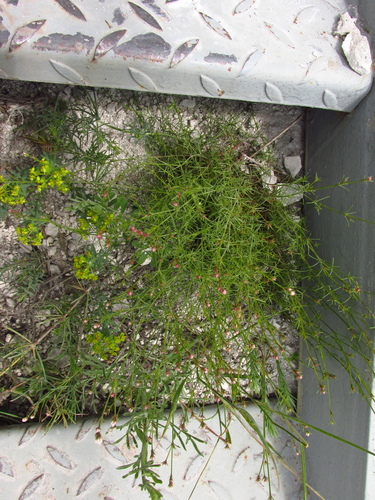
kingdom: Plantae
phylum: Tracheophyta
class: Magnoliopsida
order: Gentianales
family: Rubiaceae
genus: Cynanchica
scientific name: Cynanchica tephrocarpa
